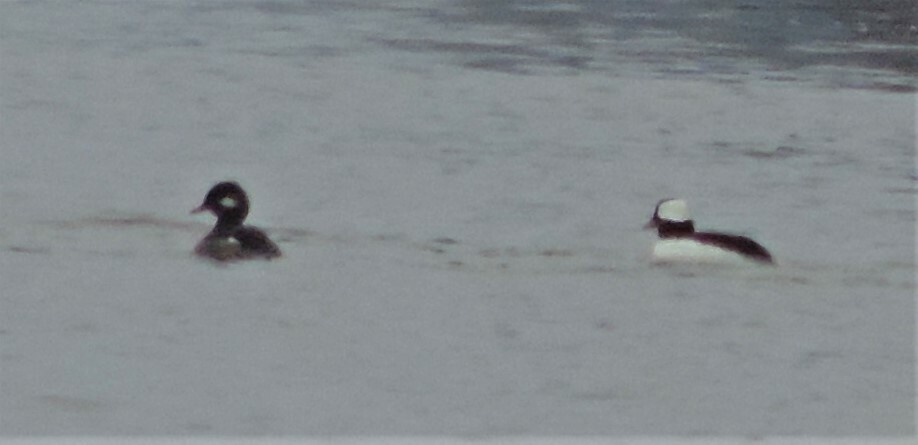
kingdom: Animalia
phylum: Chordata
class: Aves
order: Anseriformes
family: Anatidae
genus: Bucephala
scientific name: Bucephala albeola
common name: Bufflehead
